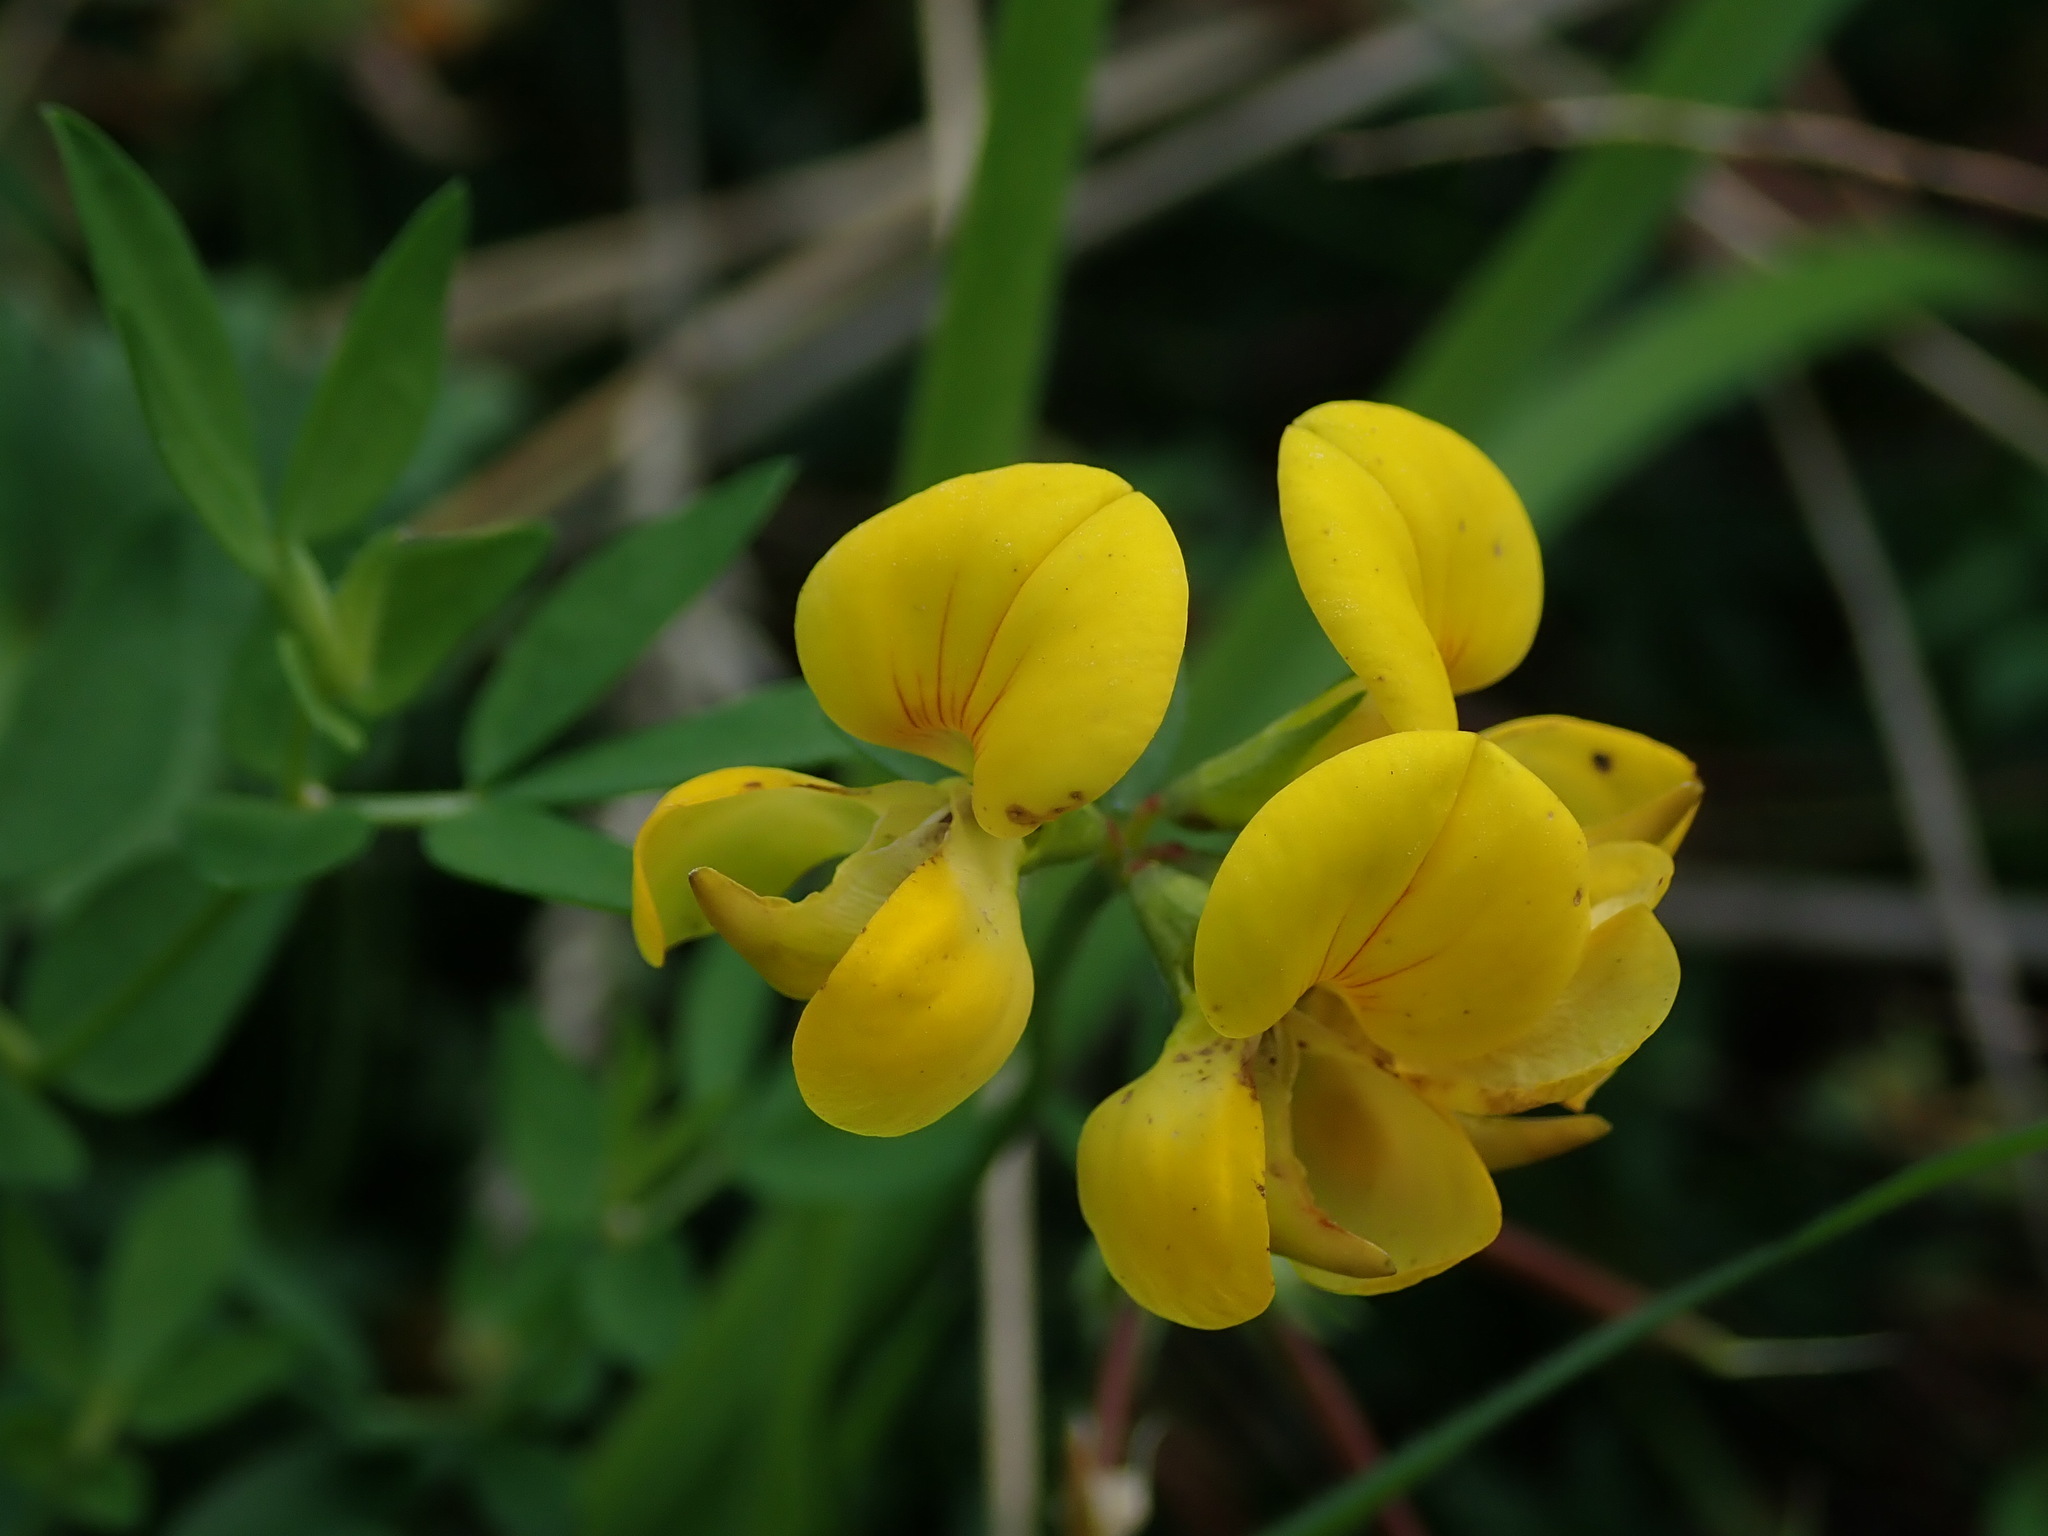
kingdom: Plantae
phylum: Tracheophyta
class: Magnoliopsida
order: Fabales
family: Fabaceae
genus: Lotus
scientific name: Lotus corniculatus
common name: Common bird's-foot-trefoil
